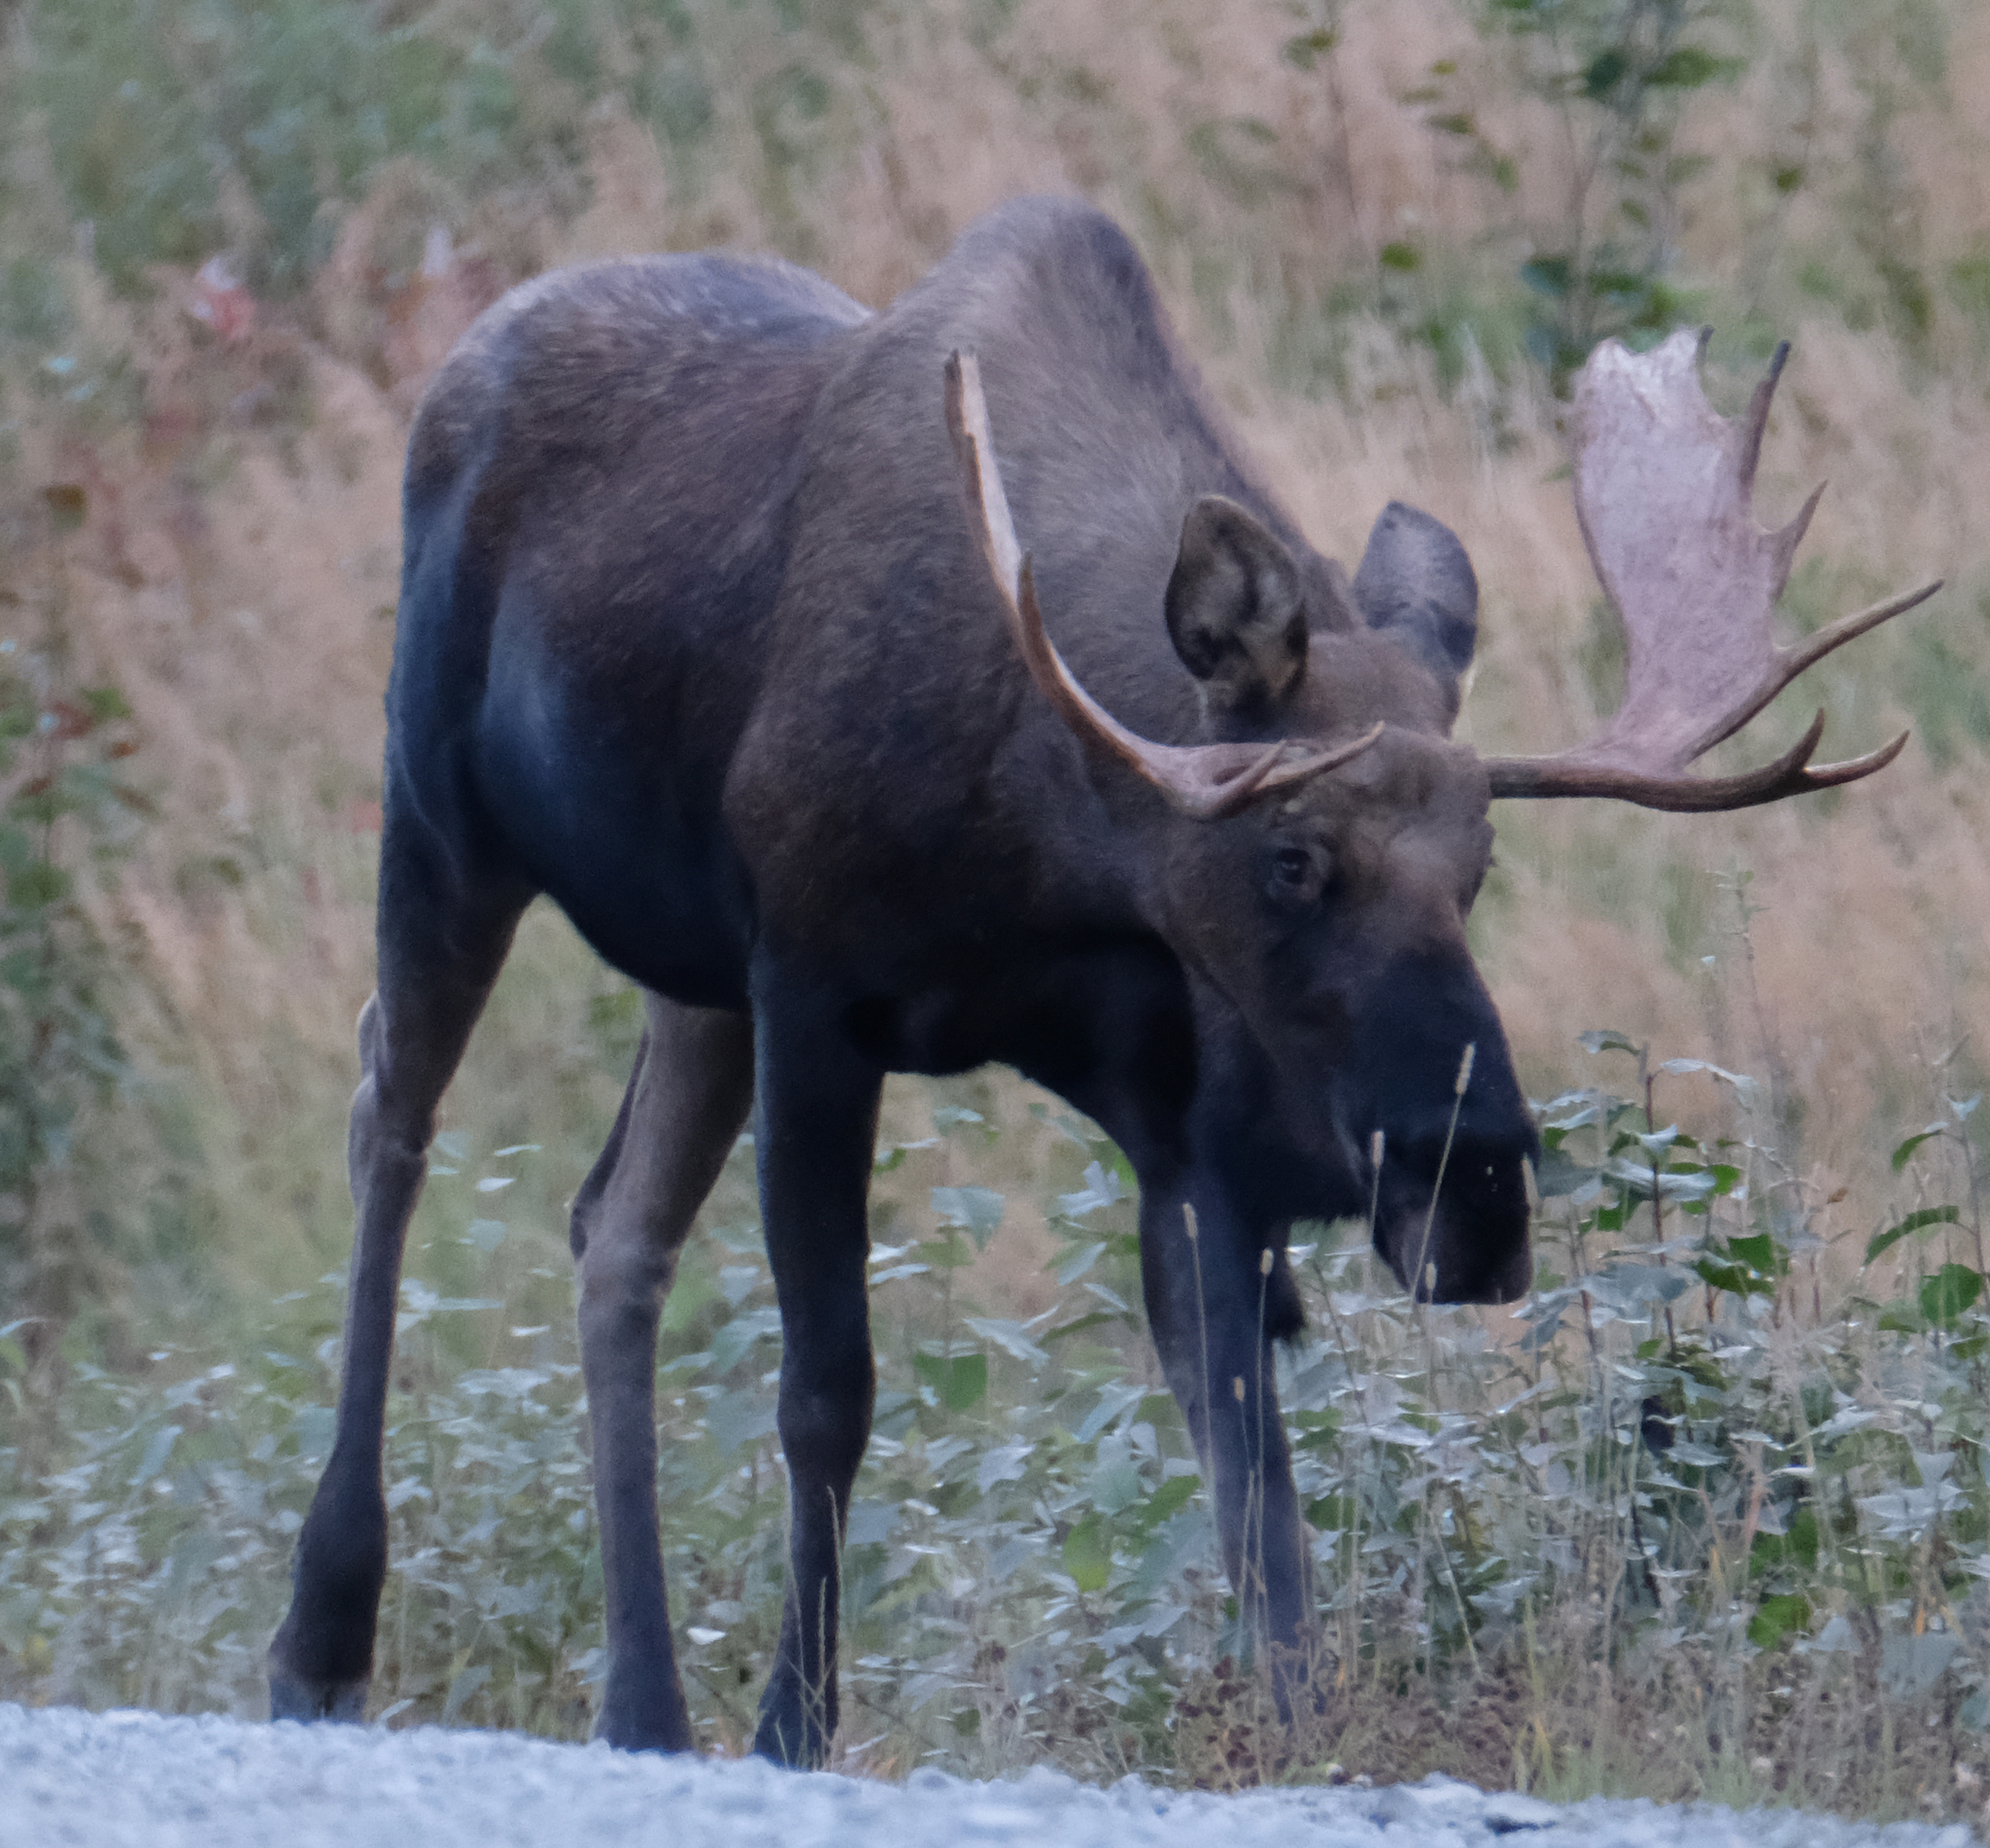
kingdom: Animalia
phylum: Chordata
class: Mammalia
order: Artiodactyla
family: Cervidae
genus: Alces
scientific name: Alces alces
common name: Moose
